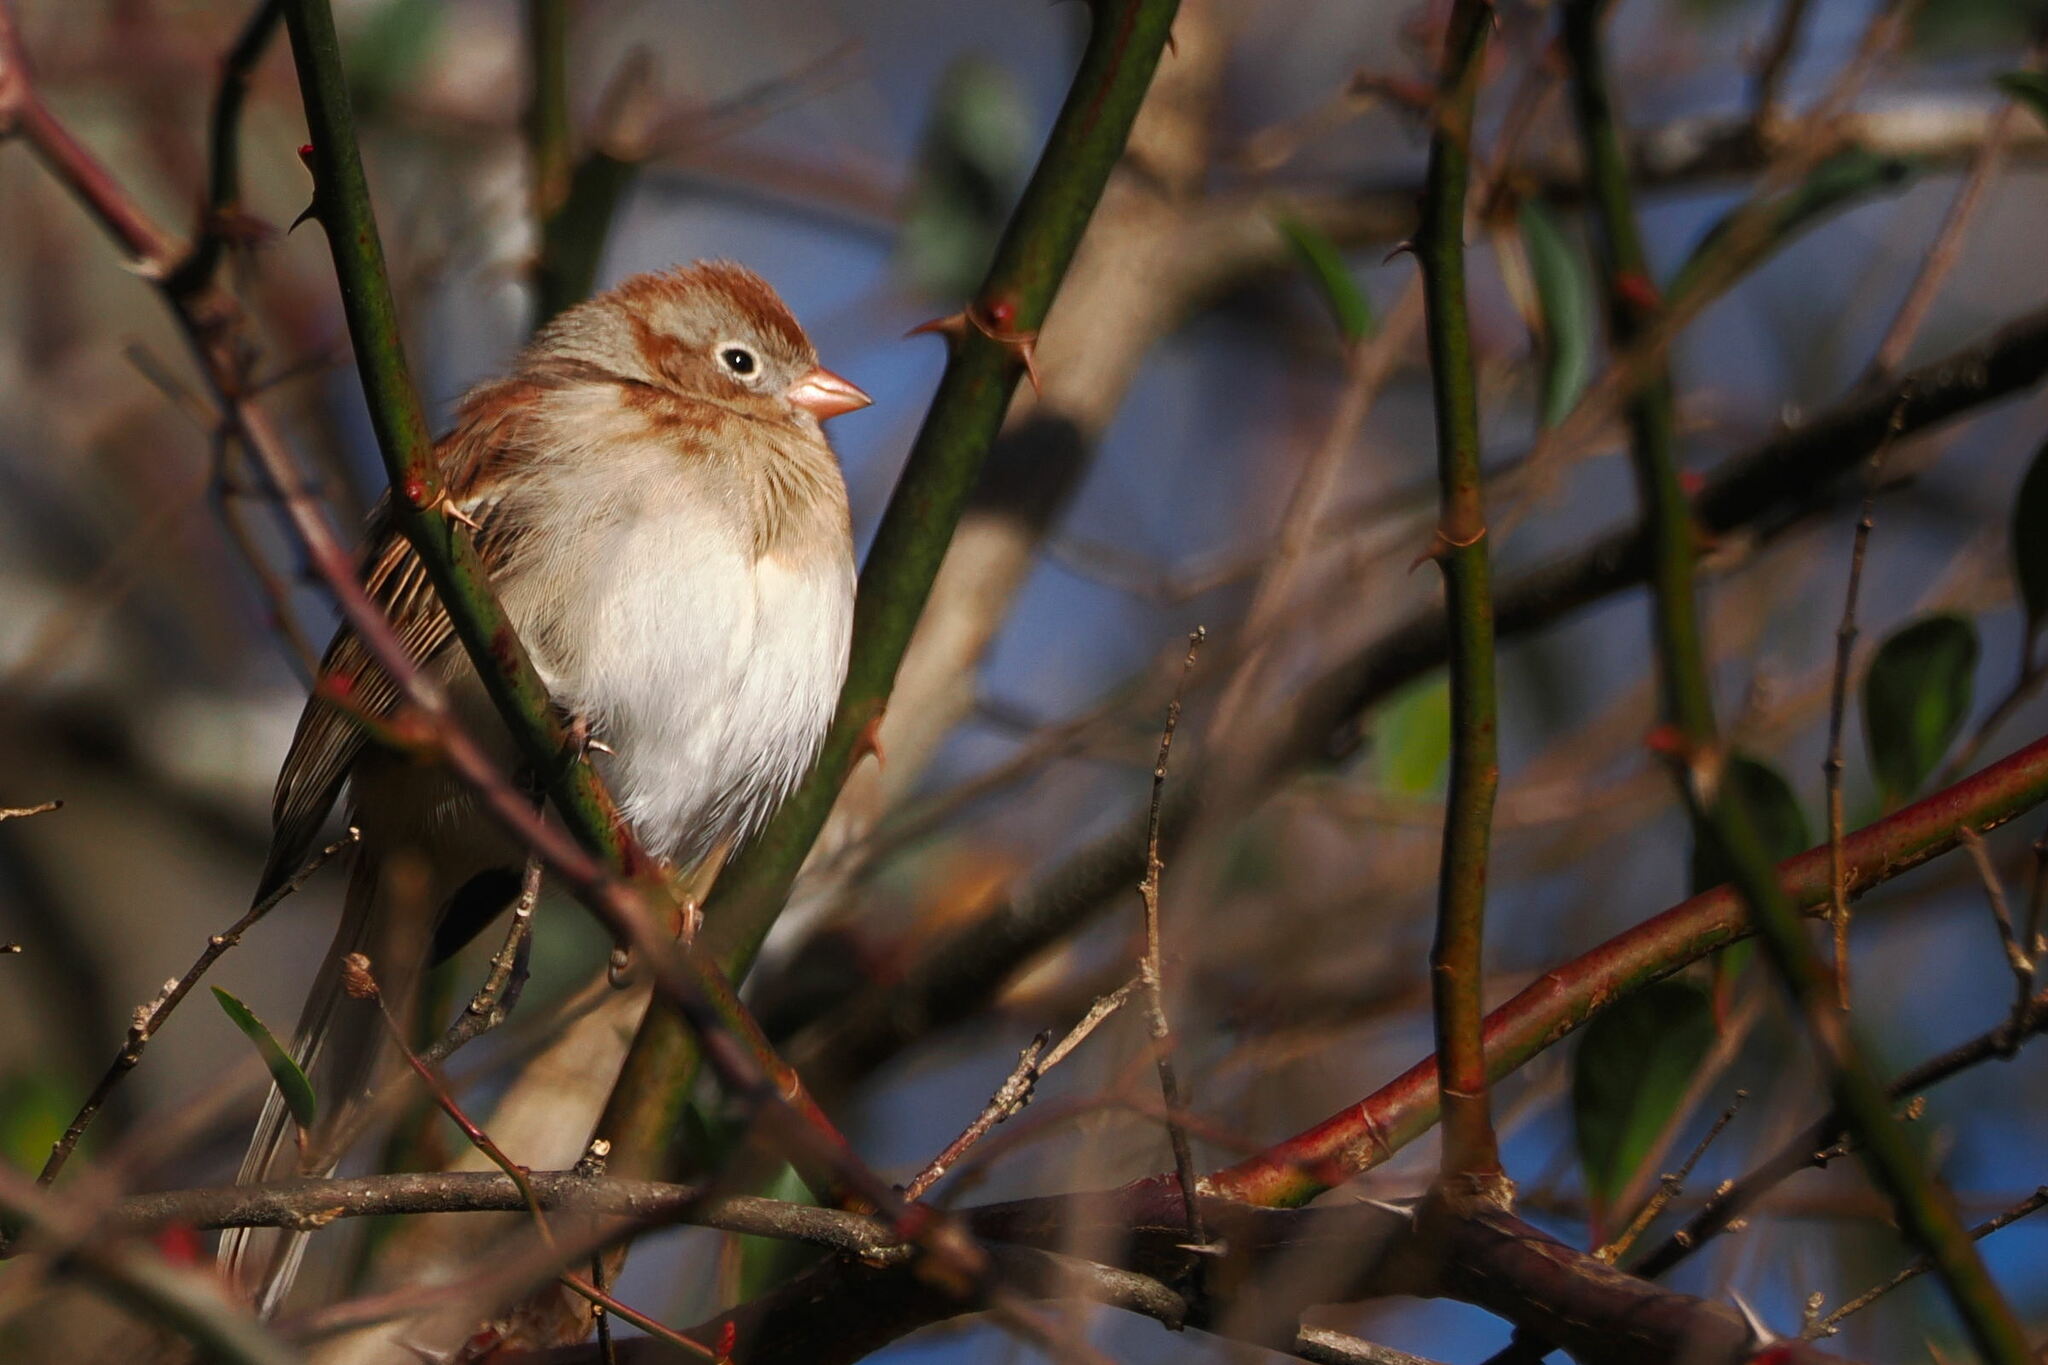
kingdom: Animalia
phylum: Chordata
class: Aves
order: Passeriformes
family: Passerellidae
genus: Spizella
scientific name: Spizella pusilla
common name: Field sparrow
